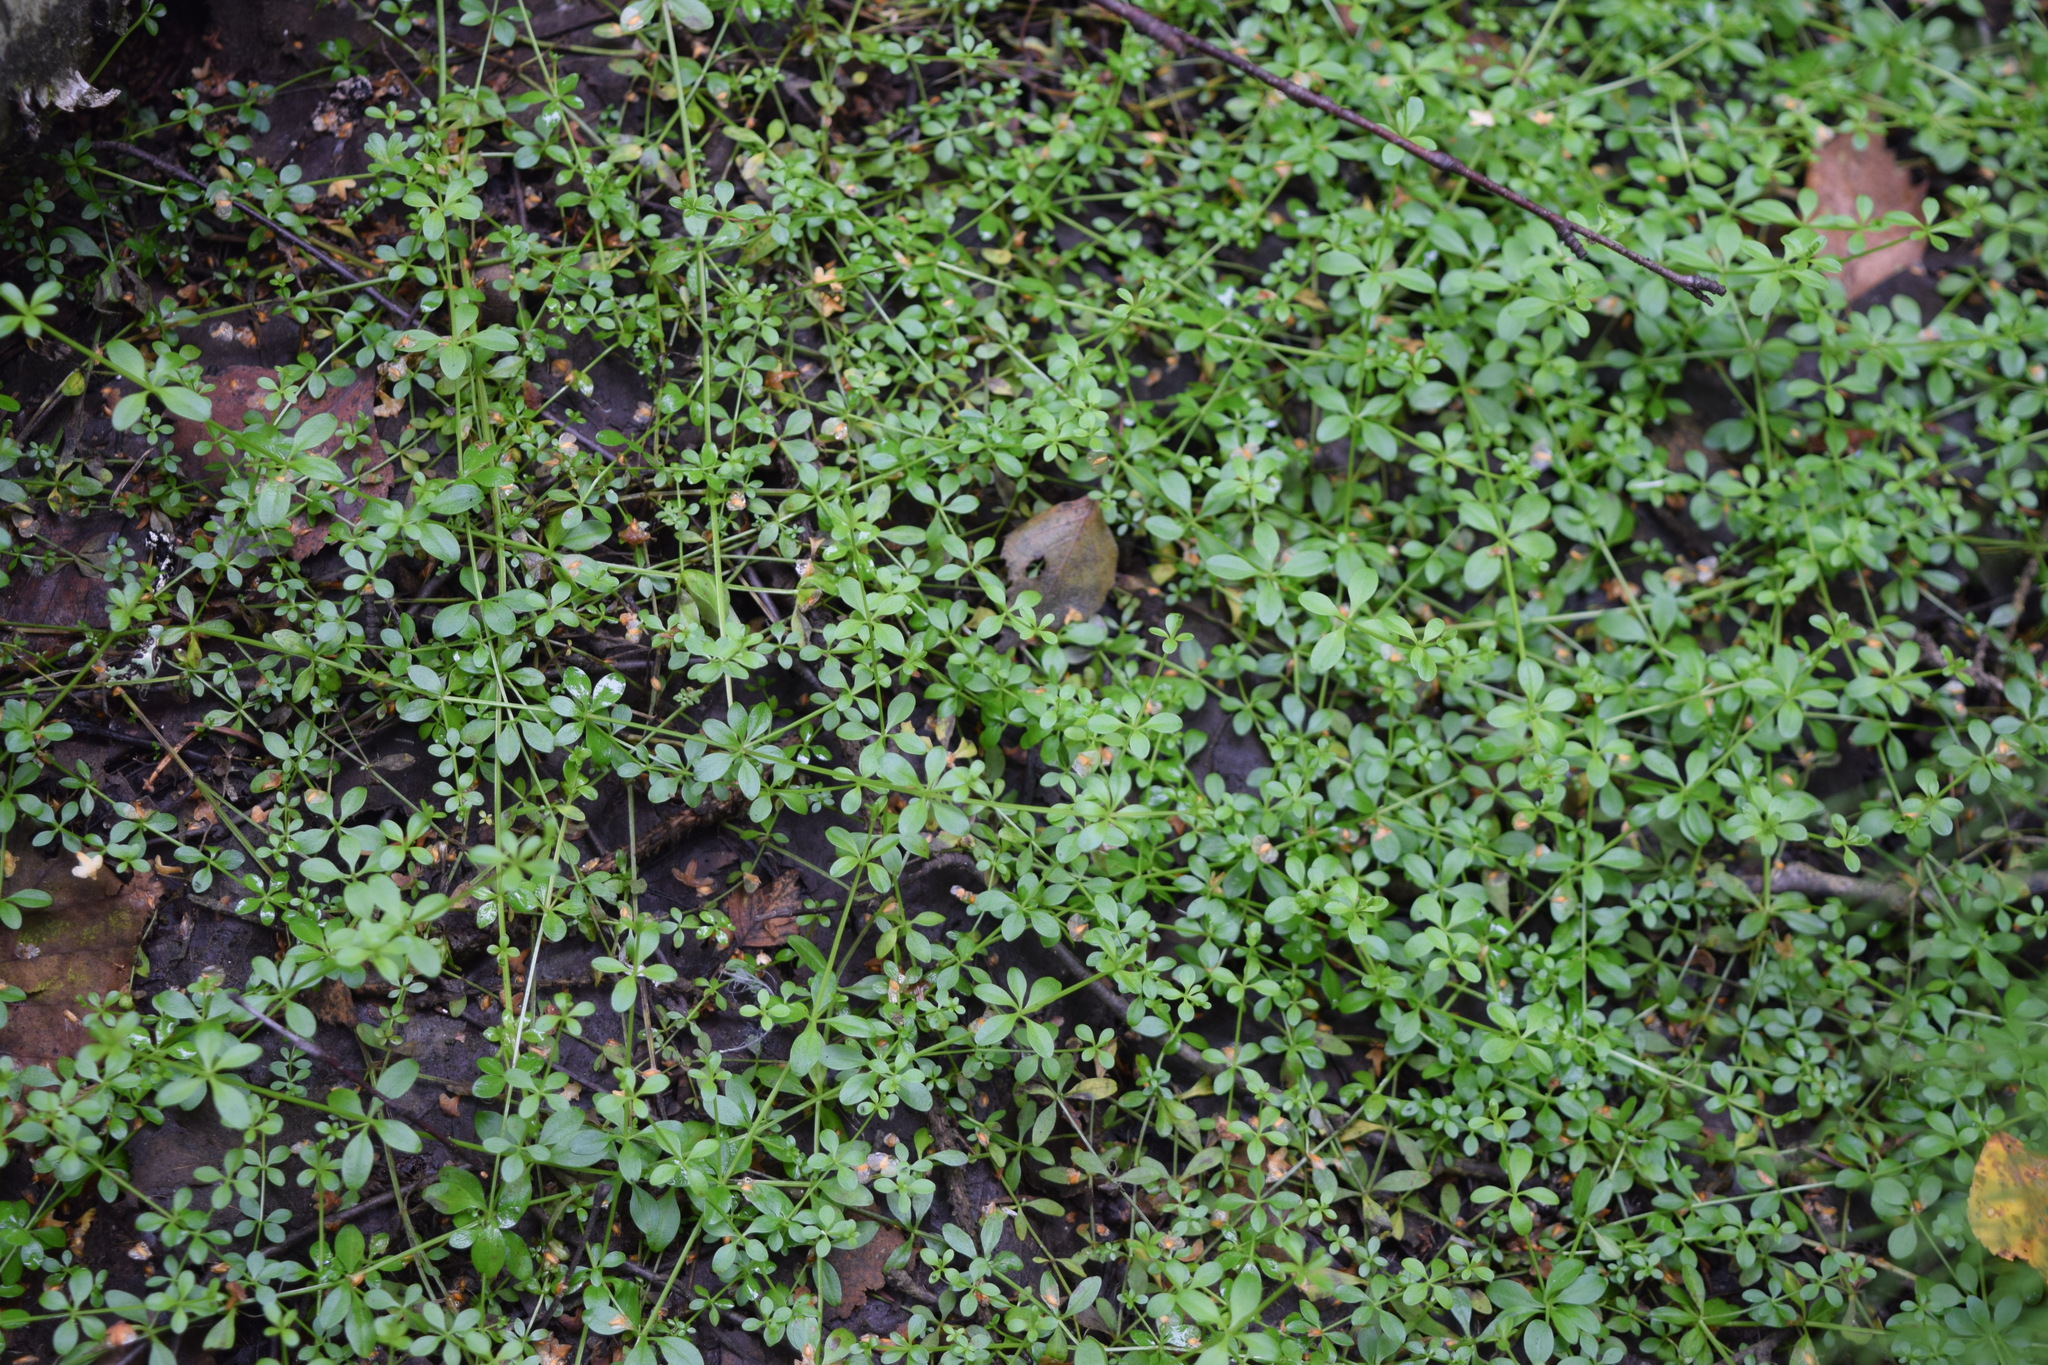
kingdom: Plantae
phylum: Tracheophyta
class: Magnoliopsida
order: Gentianales
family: Rubiaceae
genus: Galium
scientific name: Galium palustre
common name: Common marsh-bedstraw
